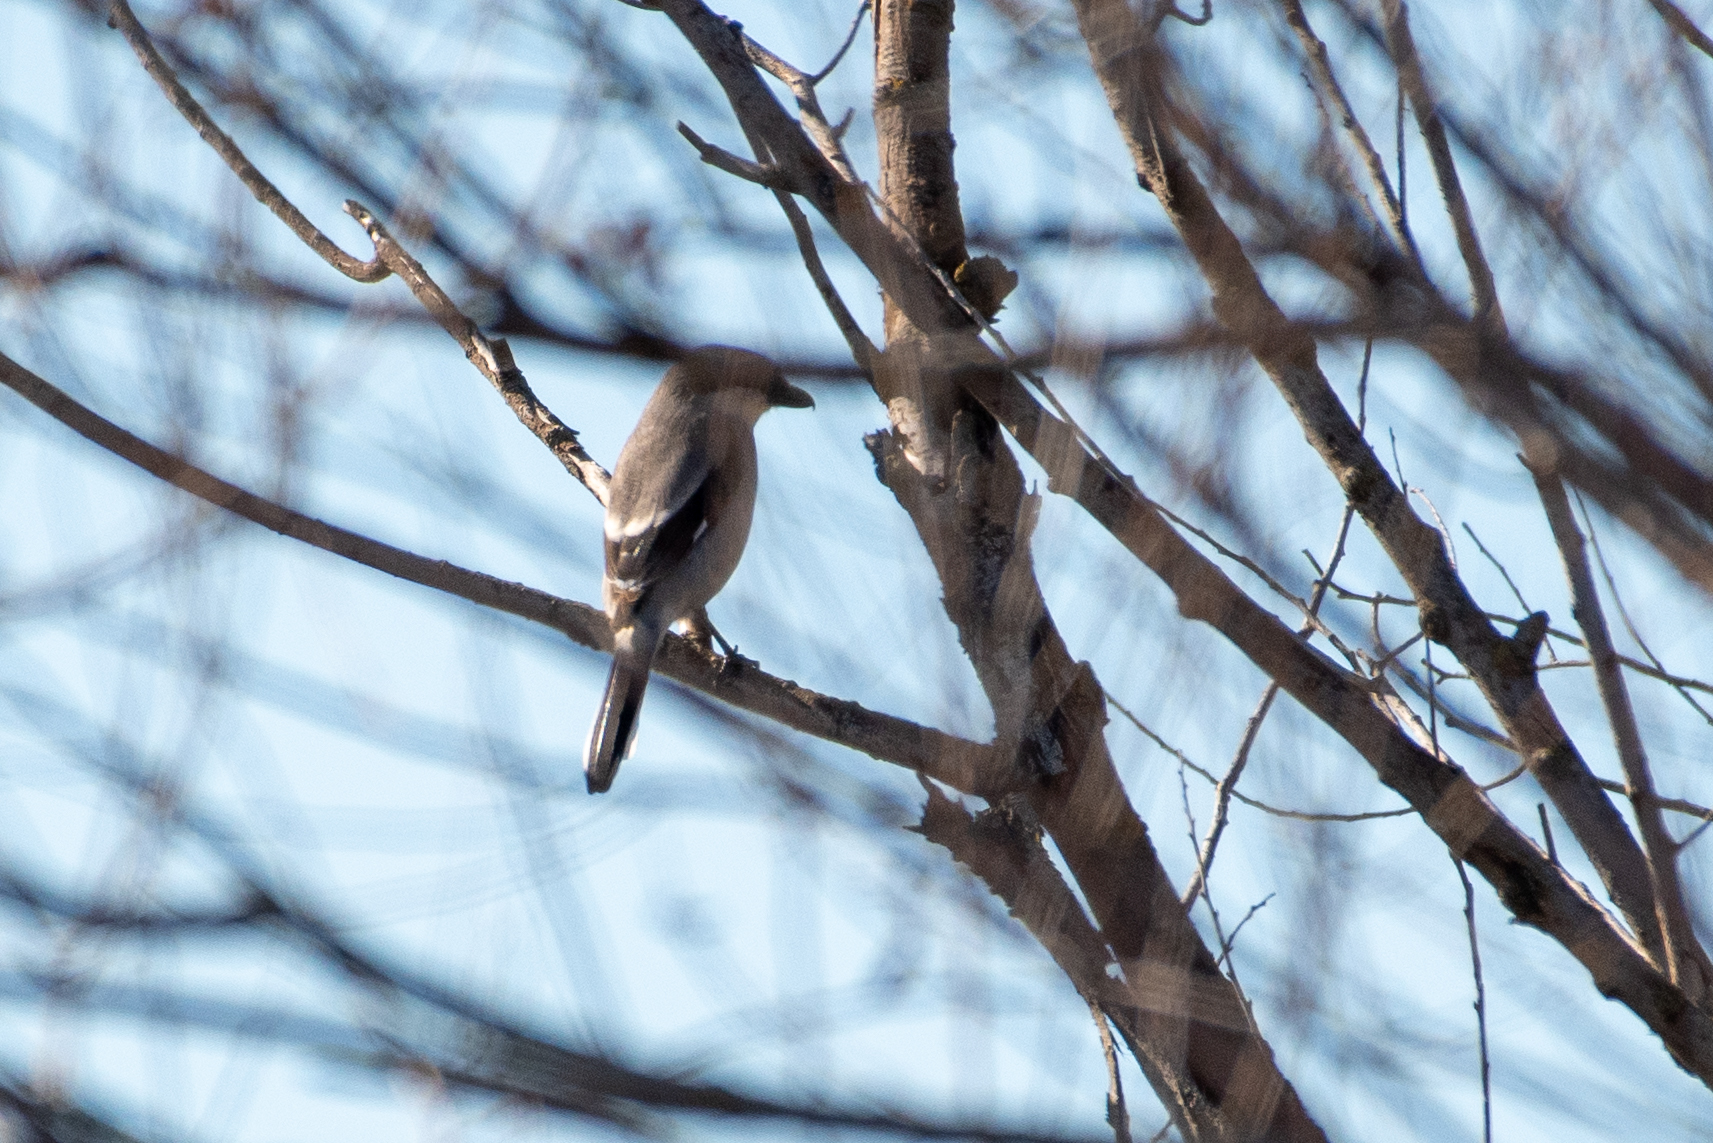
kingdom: Animalia
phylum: Chordata
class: Aves
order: Passeriformes
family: Laniidae
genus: Lanius
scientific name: Lanius ludovicianus
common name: Loggerhead shrike
